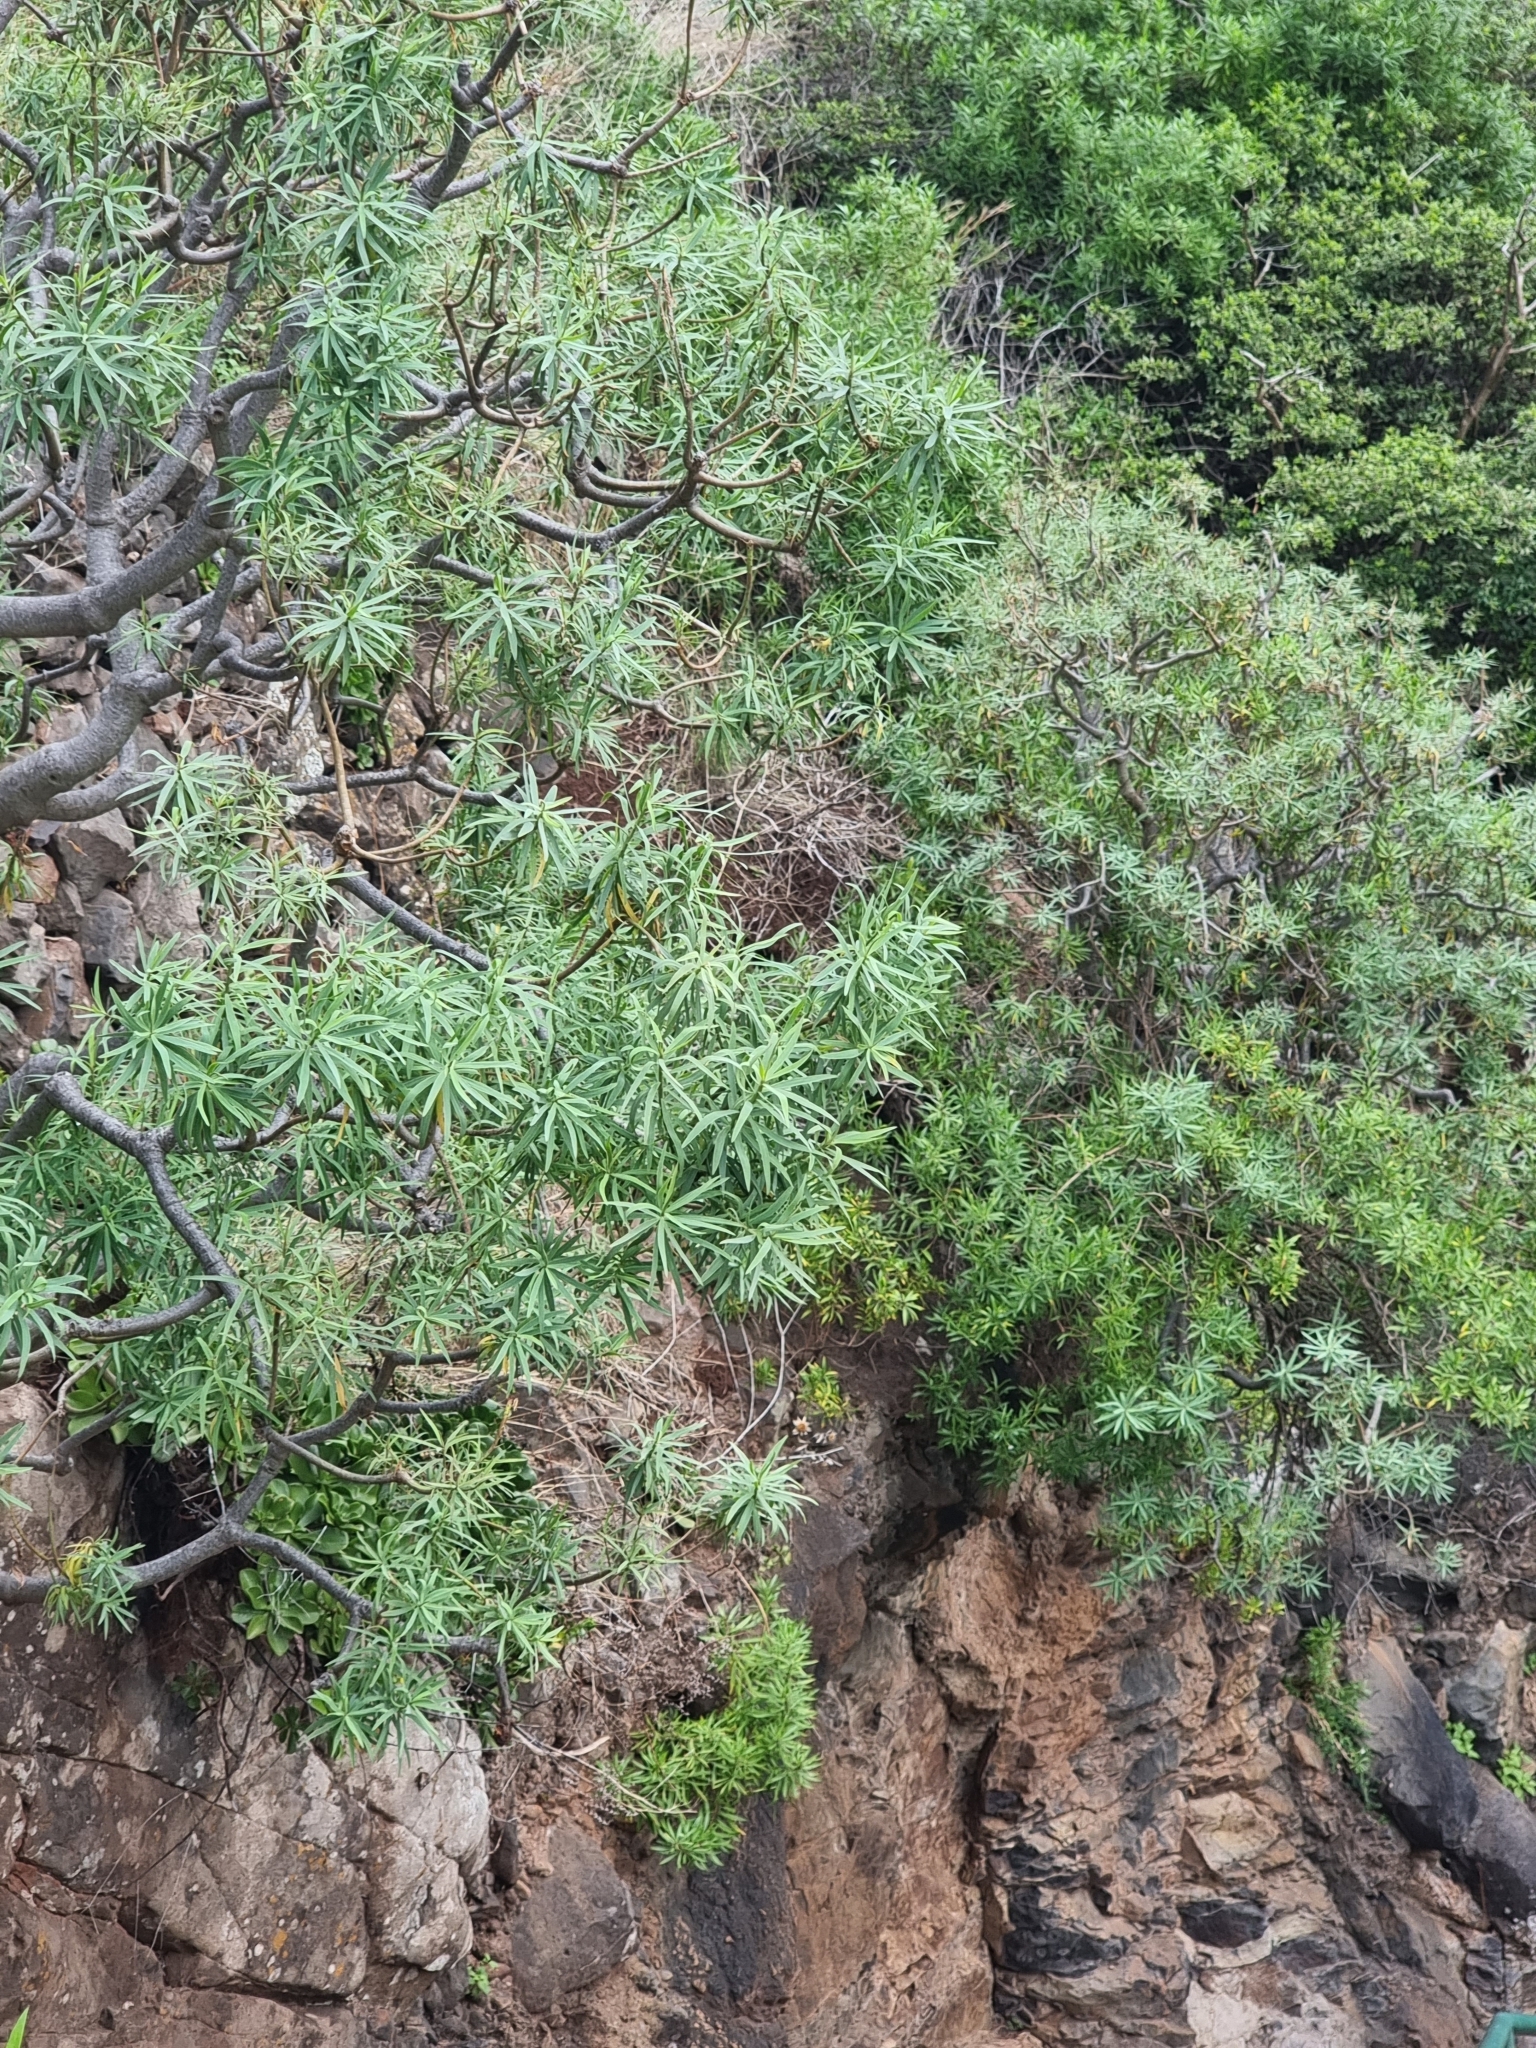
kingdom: Plantae
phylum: Tracheophyta
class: Magnoliopsida
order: Malpighiales
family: Euphorbiaceae
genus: Euphorbia
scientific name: Euphorbia piscatoria
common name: Fish-stunning spurge
